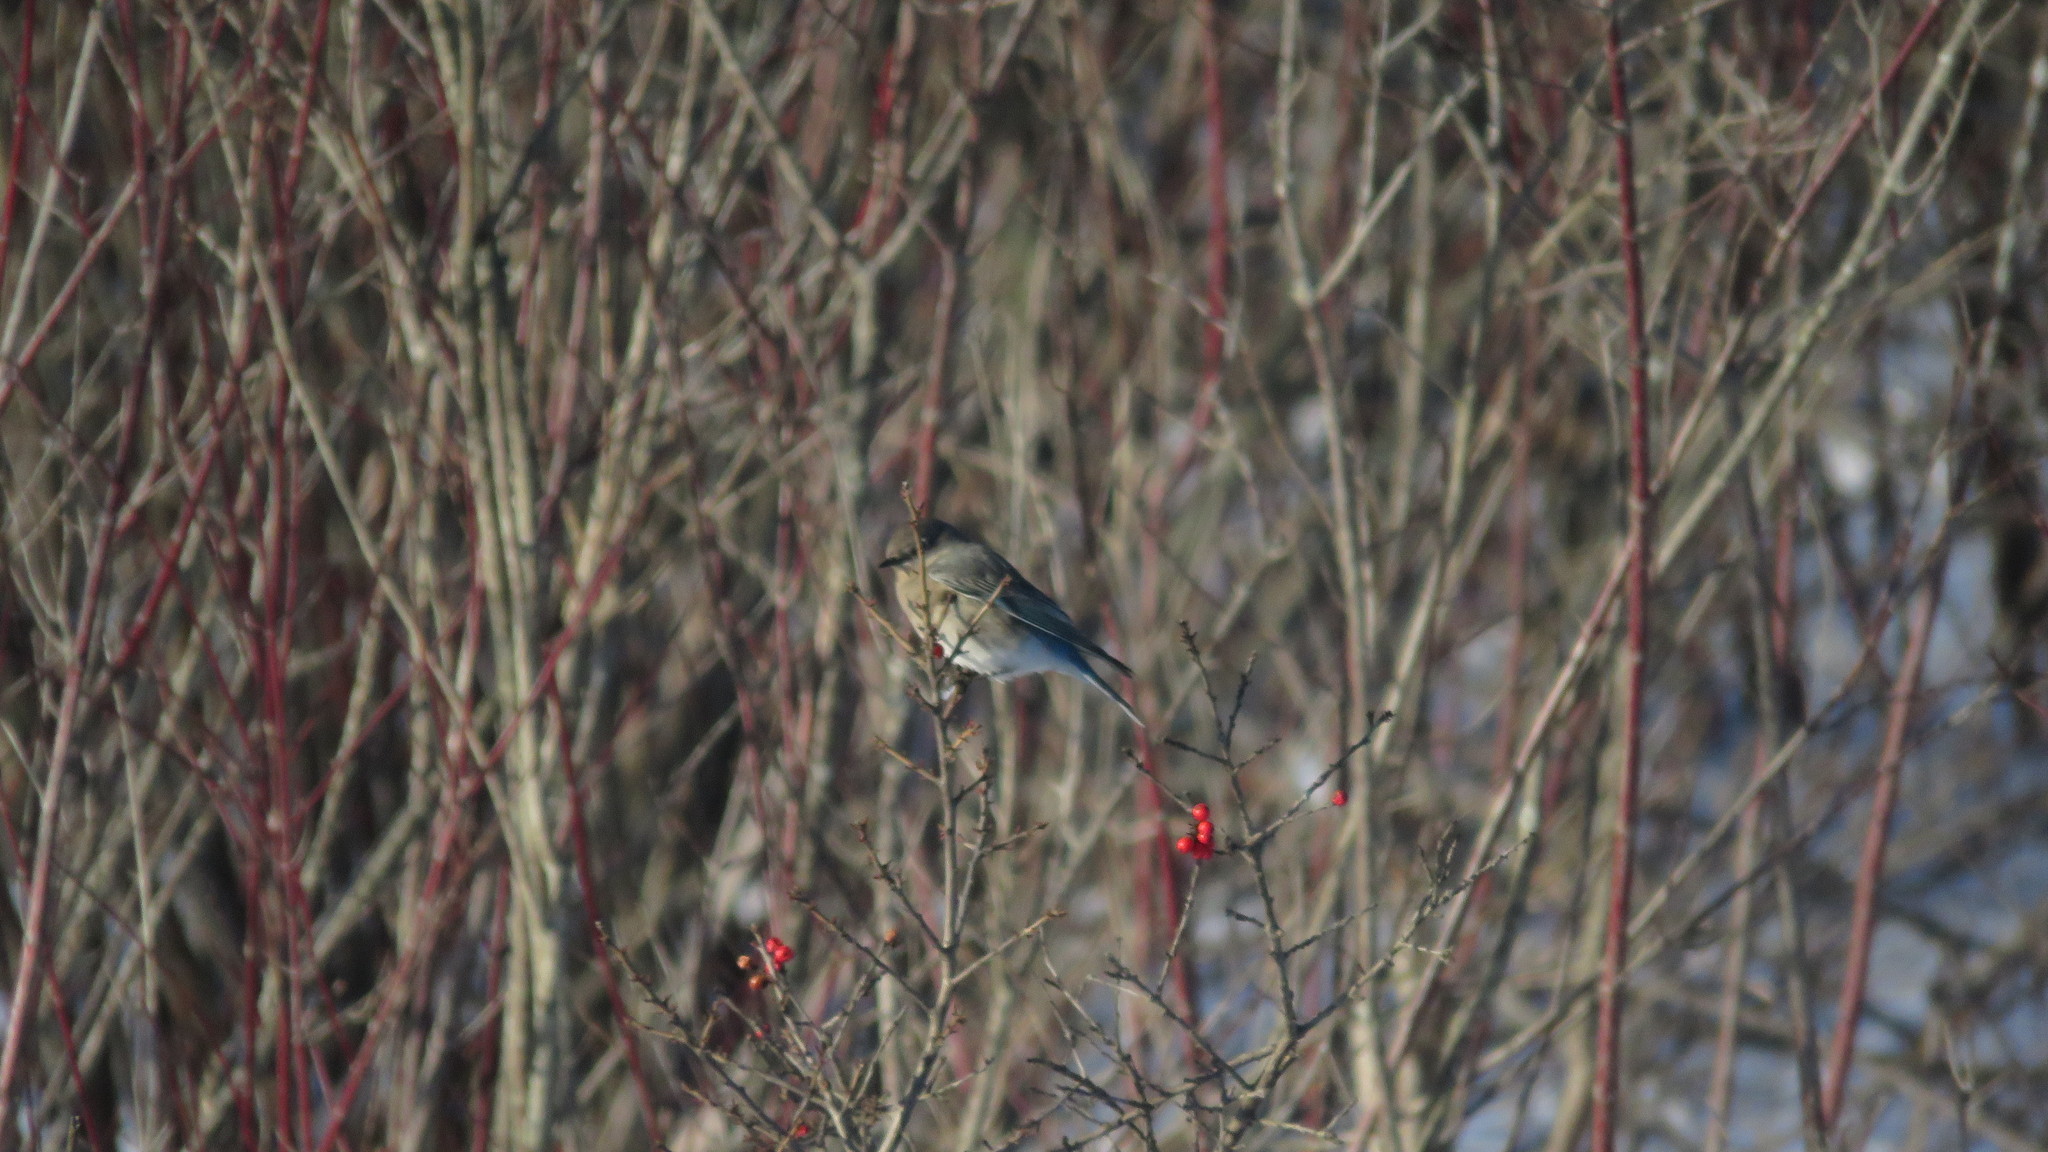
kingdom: Animalia
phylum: Chordata
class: Aves
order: Passeriformes
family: Turdidae
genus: Sialia
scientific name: Sialia currucoides
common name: Mountain bluebird
